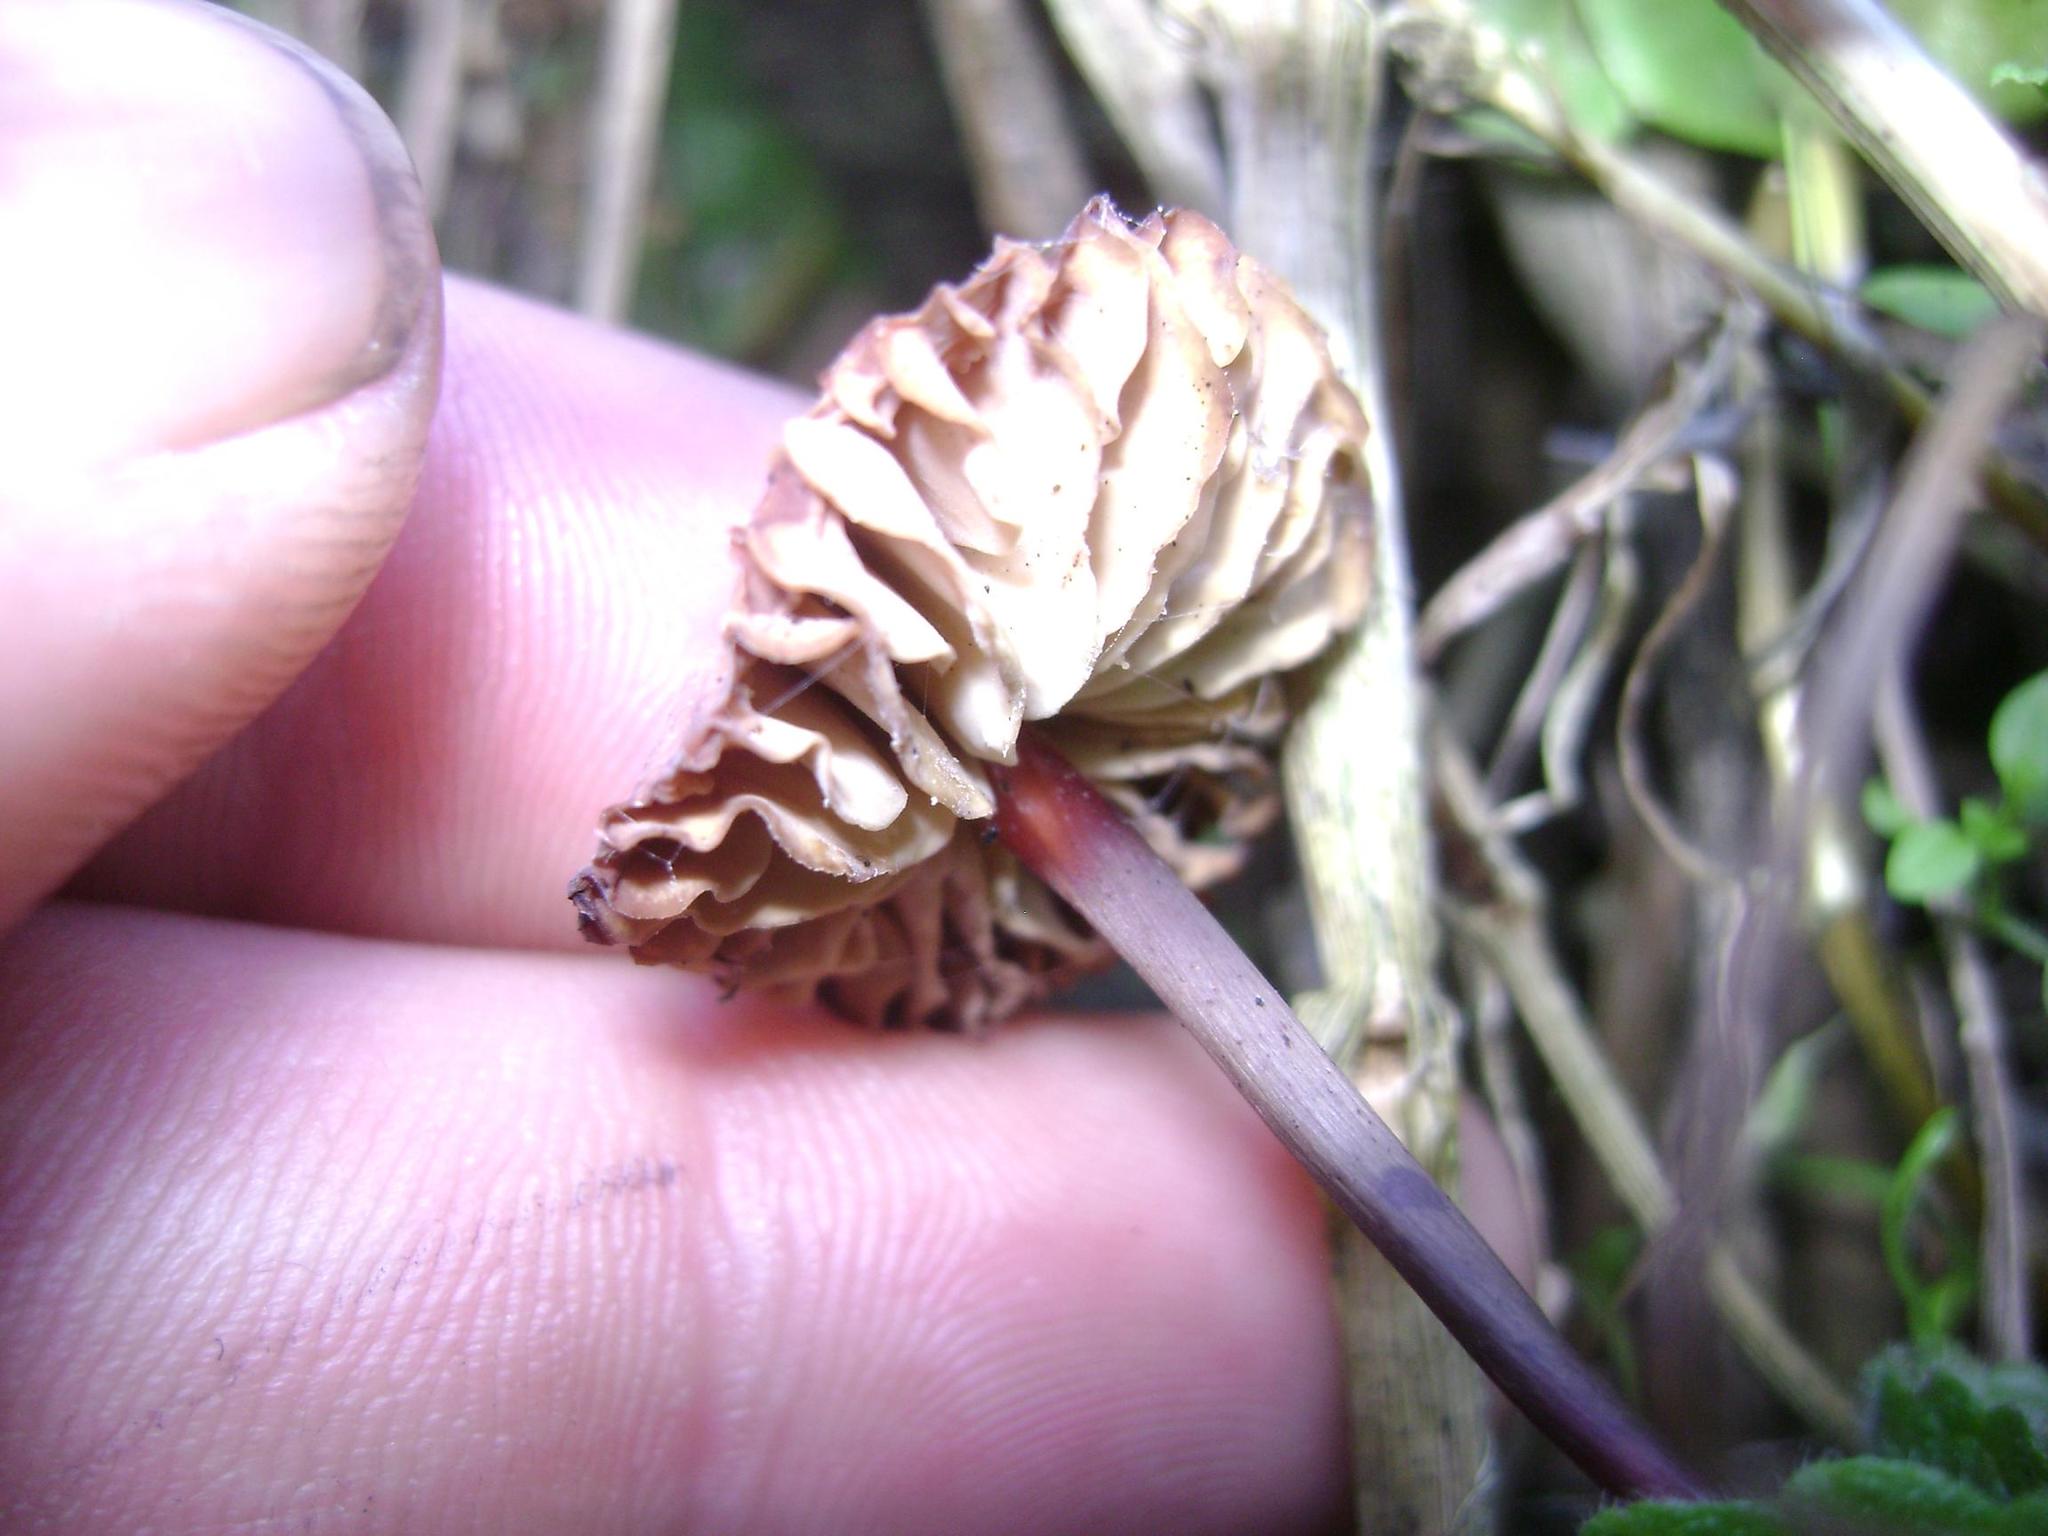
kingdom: Fungi
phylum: Basidiomycota
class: Agaricomycetes
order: Agaricales
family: Marasmiaceae
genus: Marasmius
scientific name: Marasmius plicatulus
